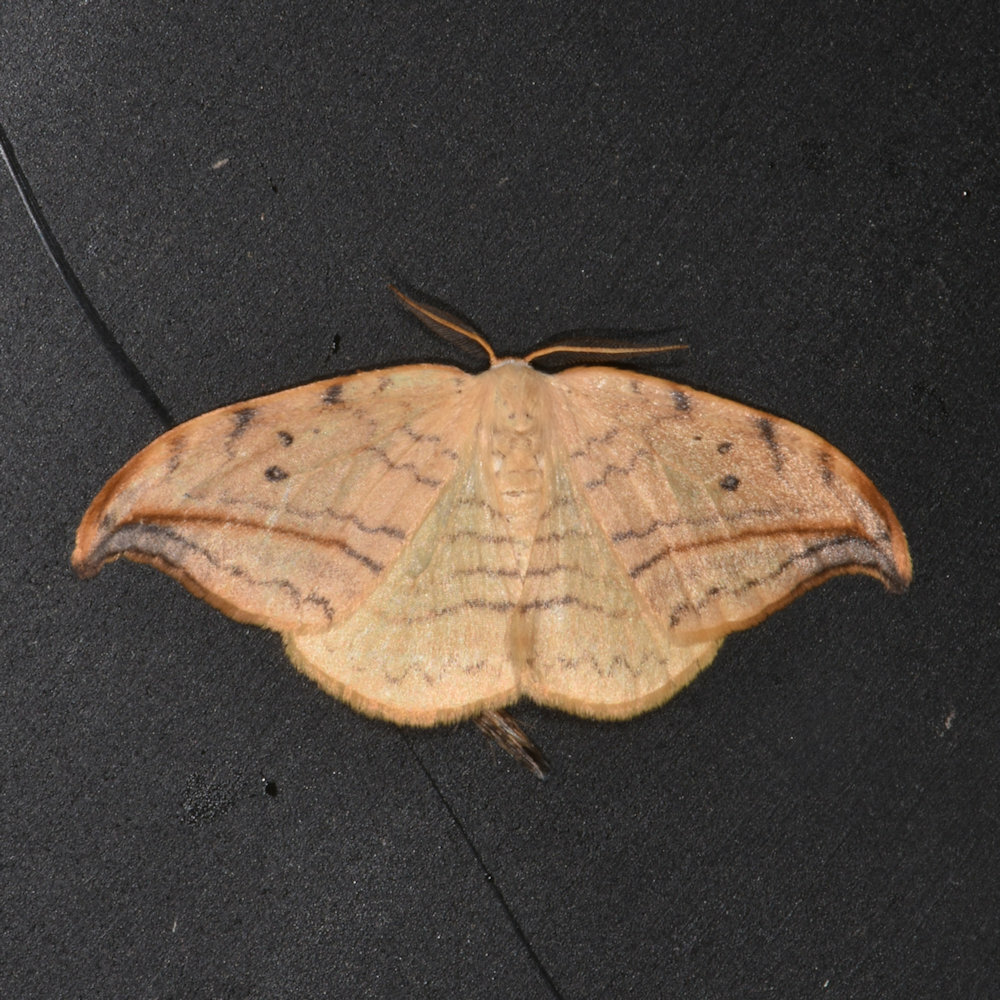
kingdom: Animalia
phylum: Arthropoda
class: Insecta
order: Lepidoptera
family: Drepanidae
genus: Drepana
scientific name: Drepana arcuata
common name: Arched hooktip moth
